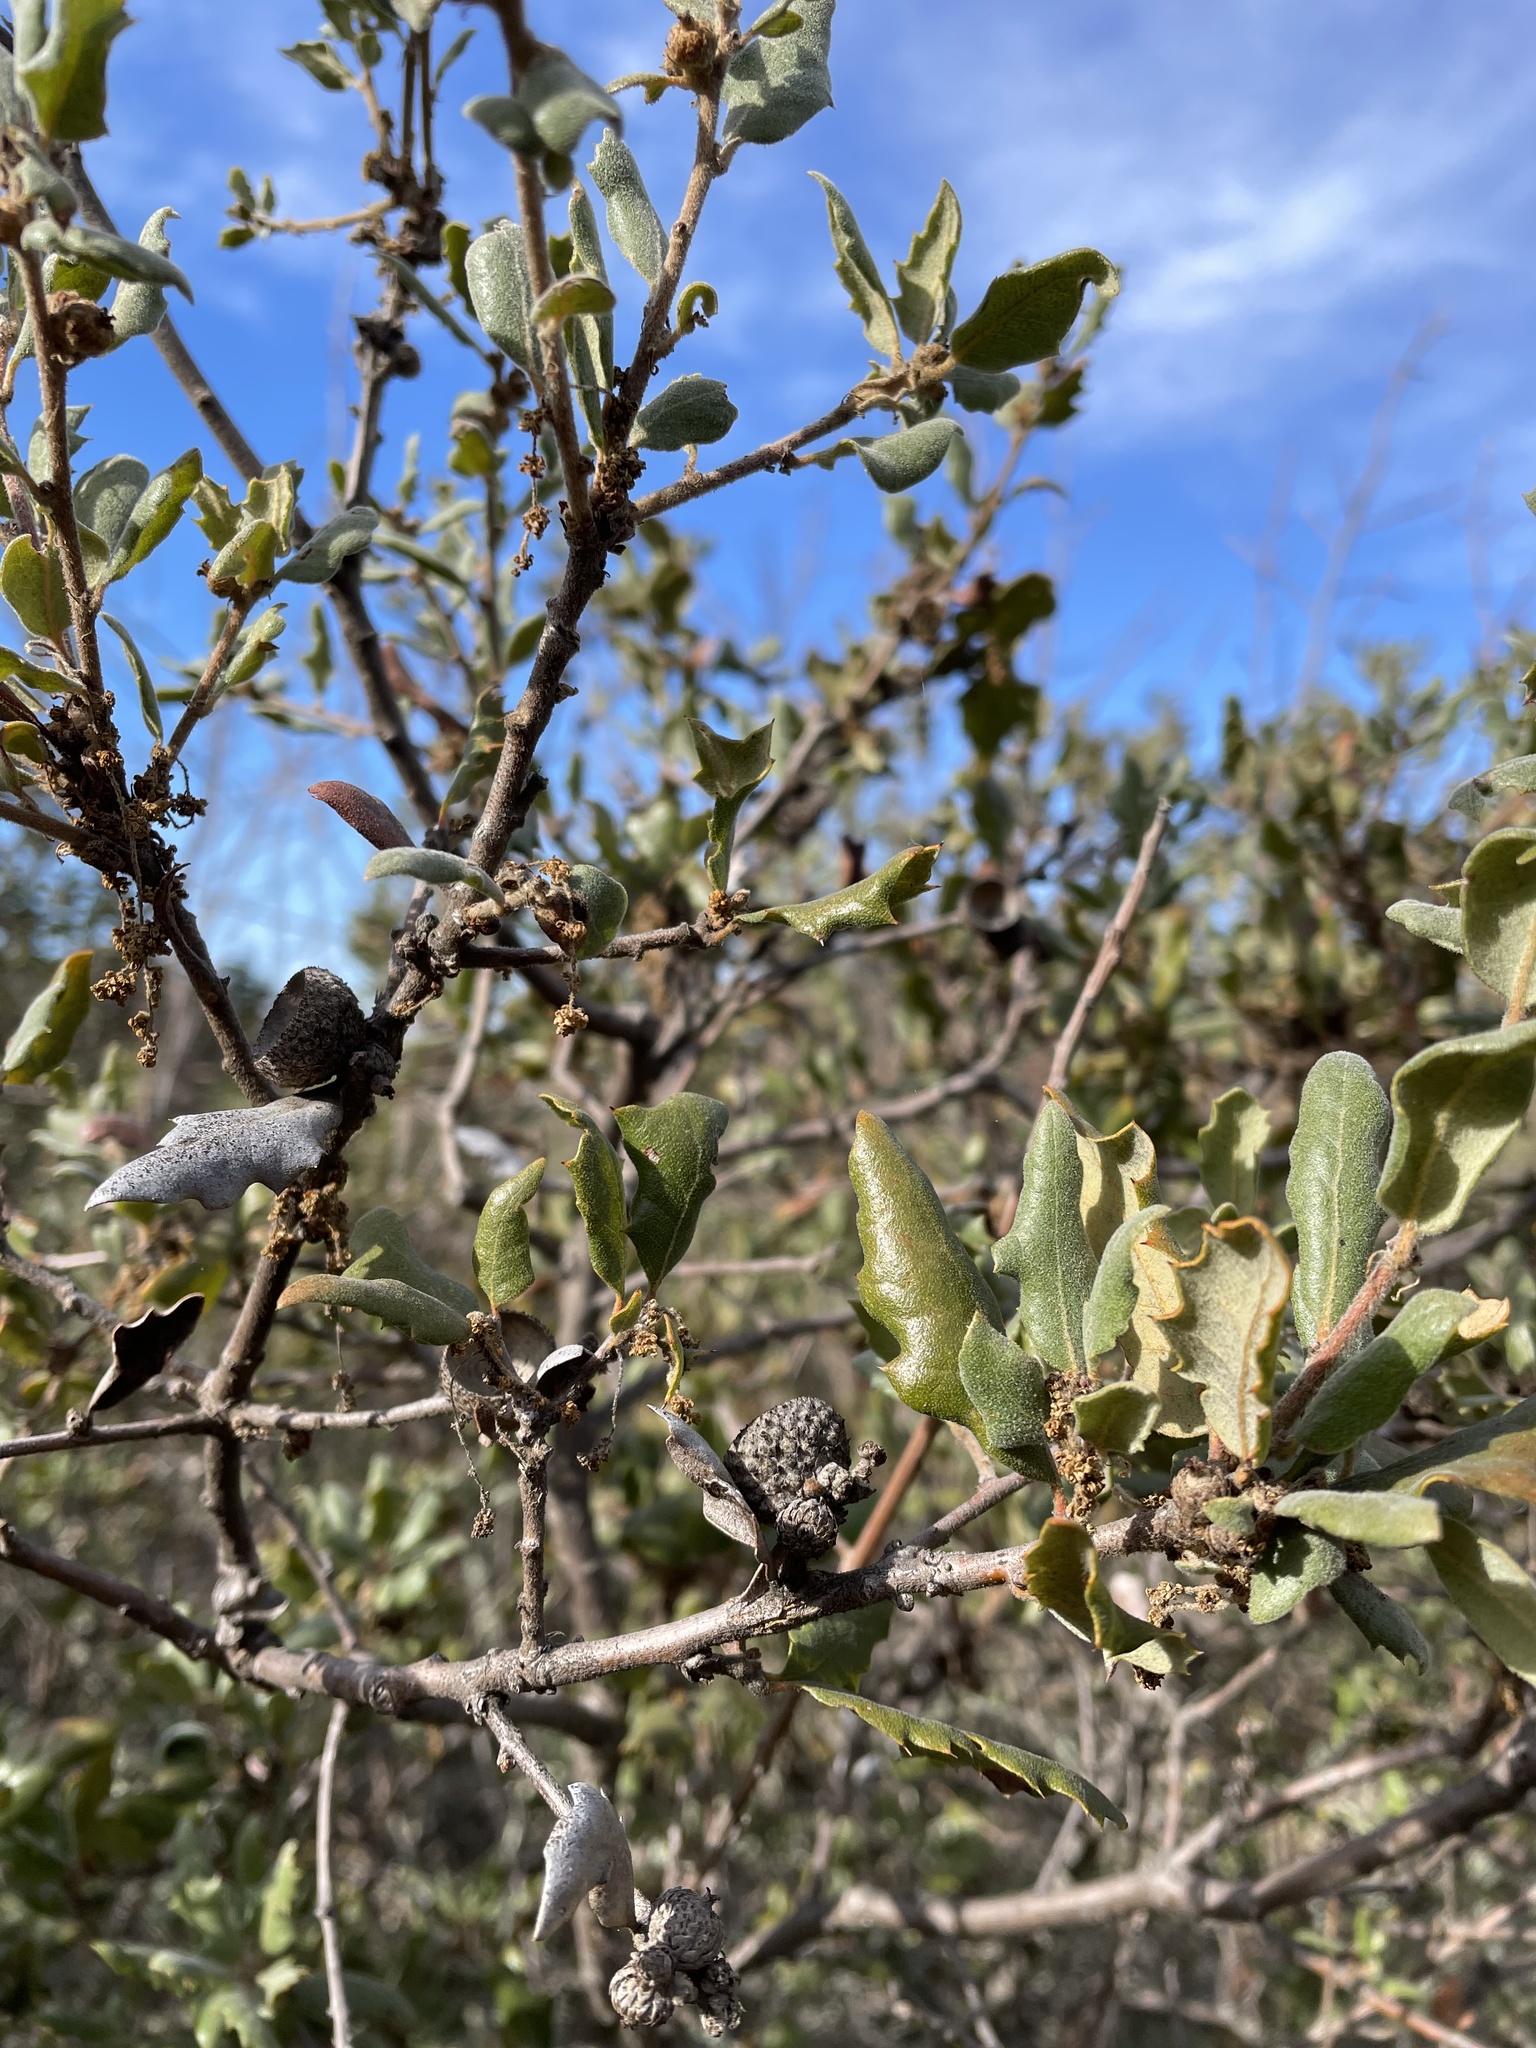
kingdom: Plantae
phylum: Tracheophyta
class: Magnoliopsida
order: Fagales
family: Fagaceae
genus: Quercus
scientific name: Quercus durata
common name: Leather oak
